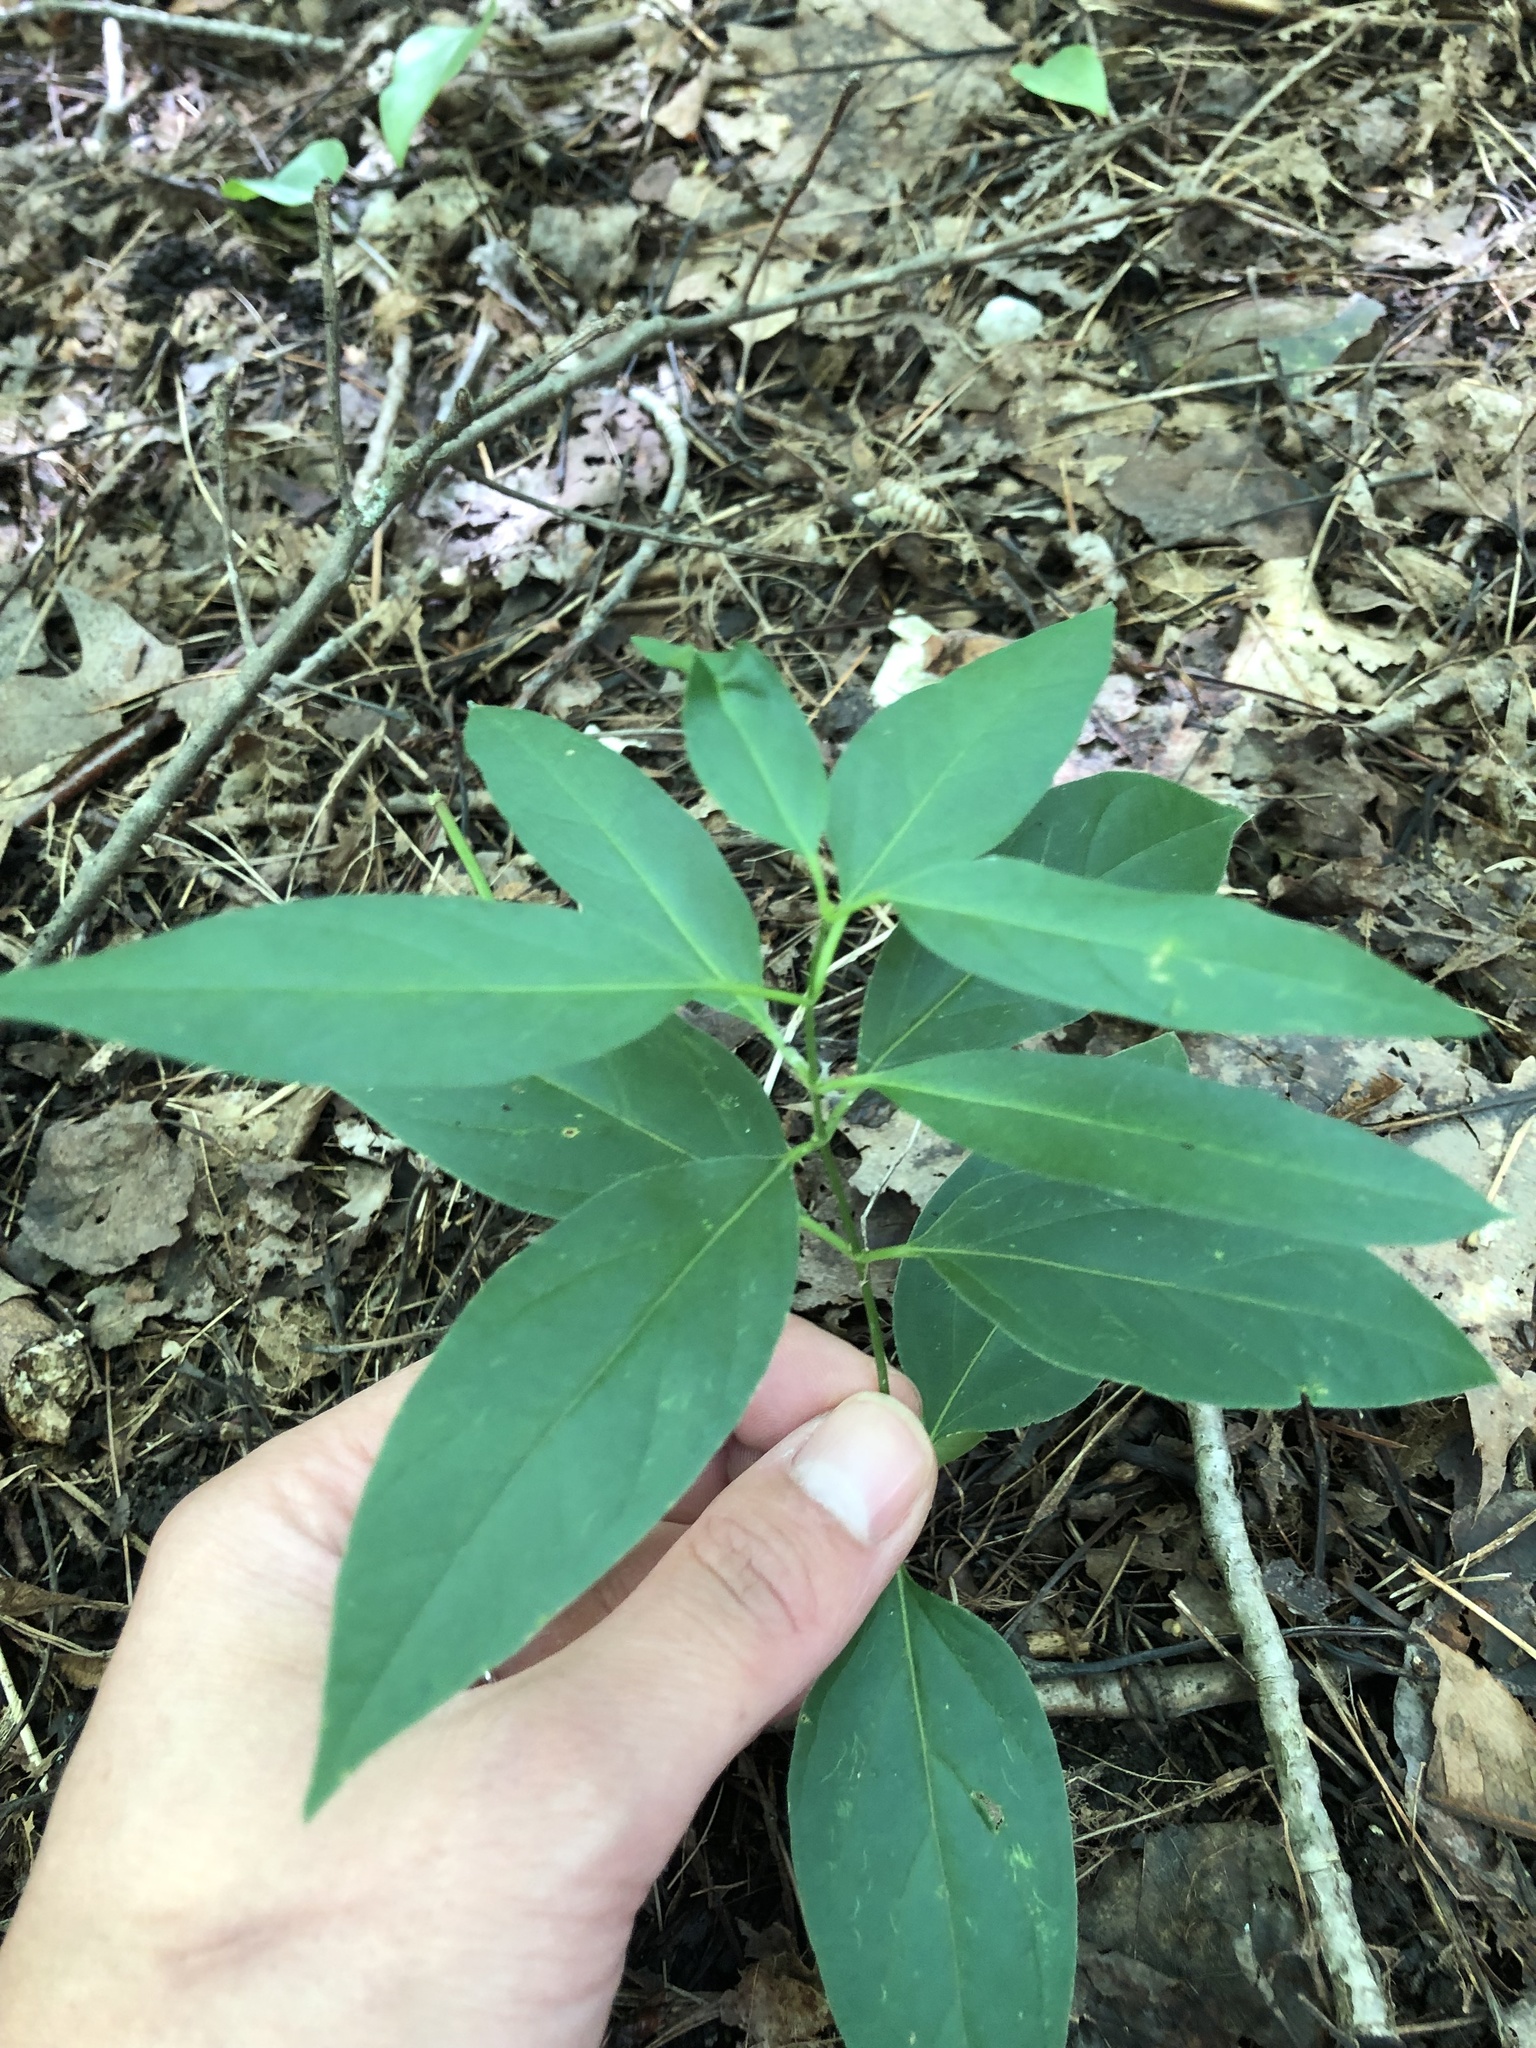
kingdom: Plantae
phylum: Tracheophyta
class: Magnoliopsida
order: Gentianales
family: Apocynaceae
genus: Vincetoxicum
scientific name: Vincetoxicum rossicum
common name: Dog-strangling vine
